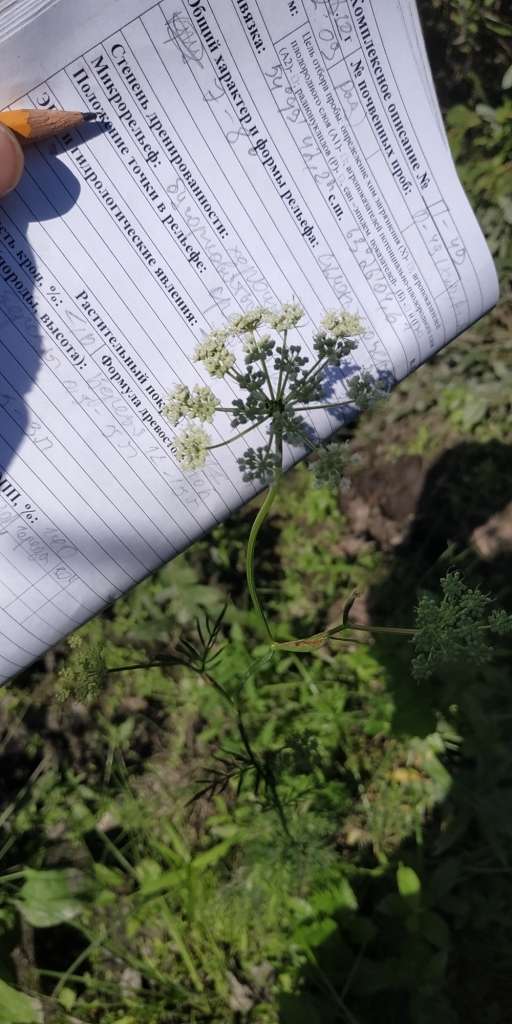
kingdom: Plantae
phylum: Tracheophyta
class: Magnoliopsida
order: Apiales
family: Apiaceae
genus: Kadenia
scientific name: Kadenia dubia
